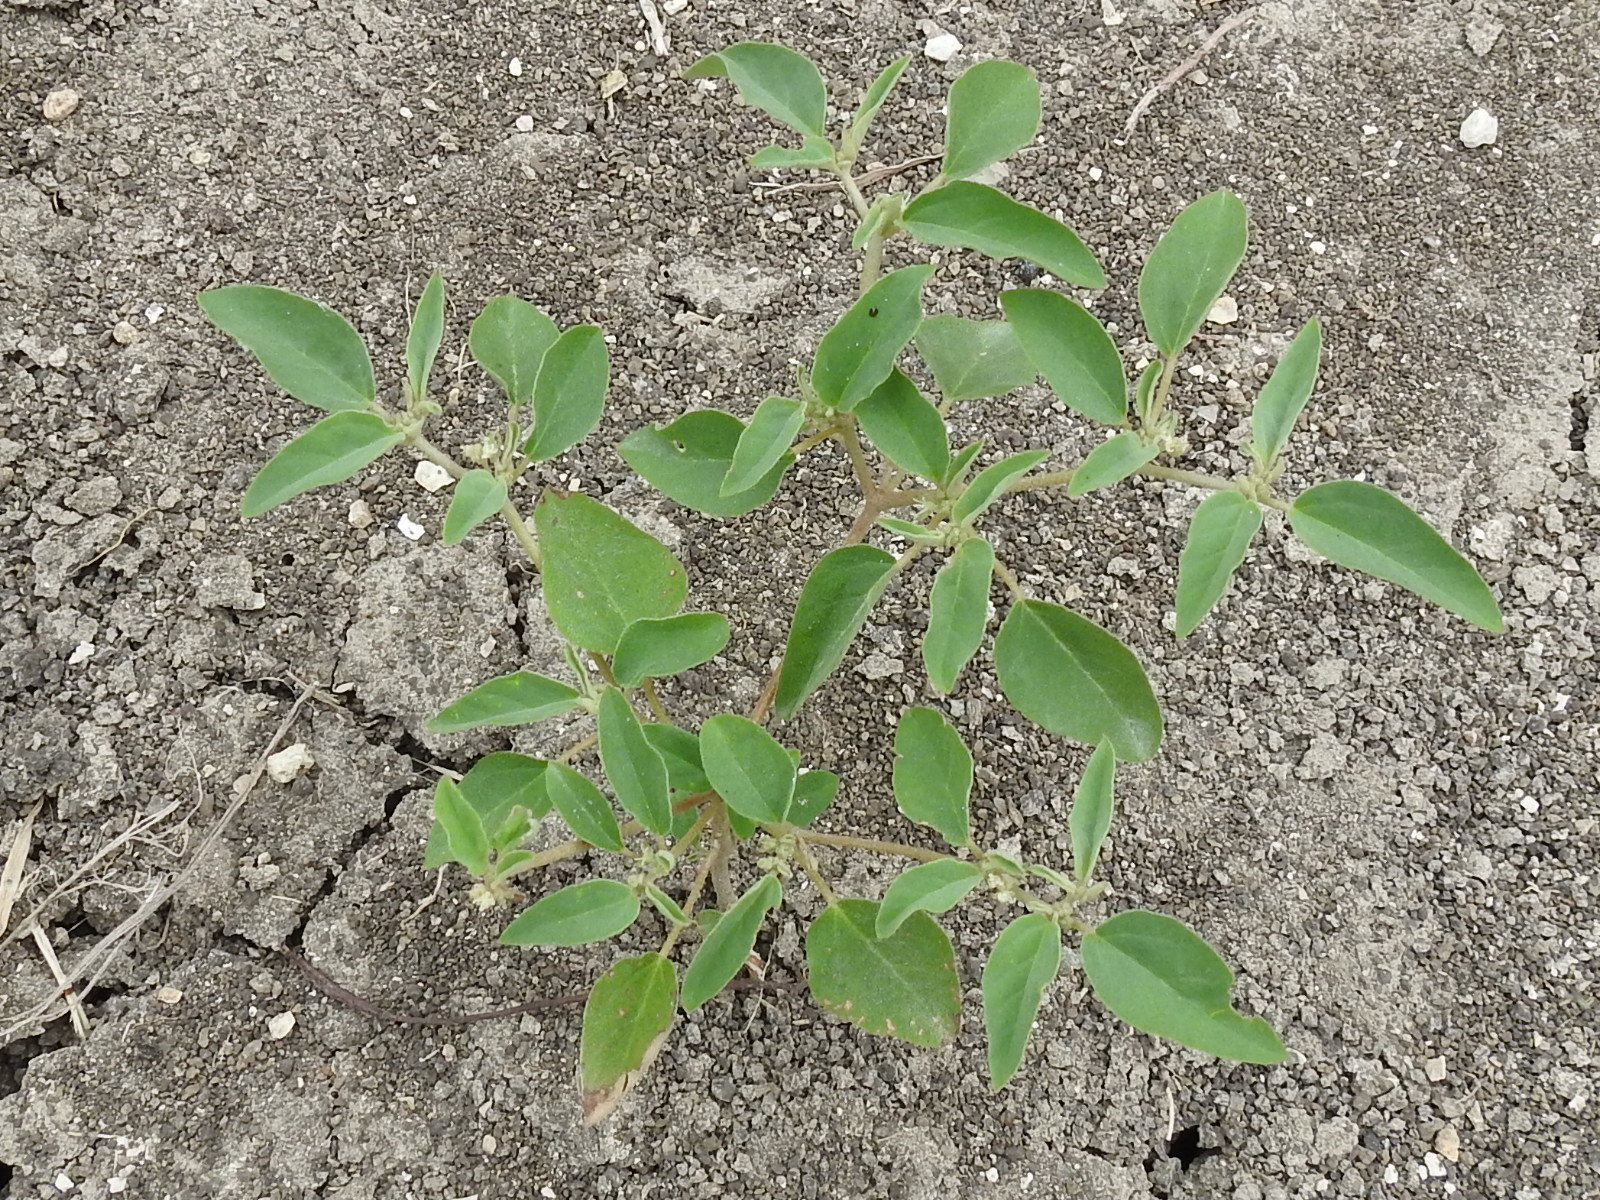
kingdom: Plantae
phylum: Tracheophyta
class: Magnoliopsida
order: Malpighiales
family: Euphorbiaceae
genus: Croton
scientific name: Croton monanthogynus
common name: One-seed croton
